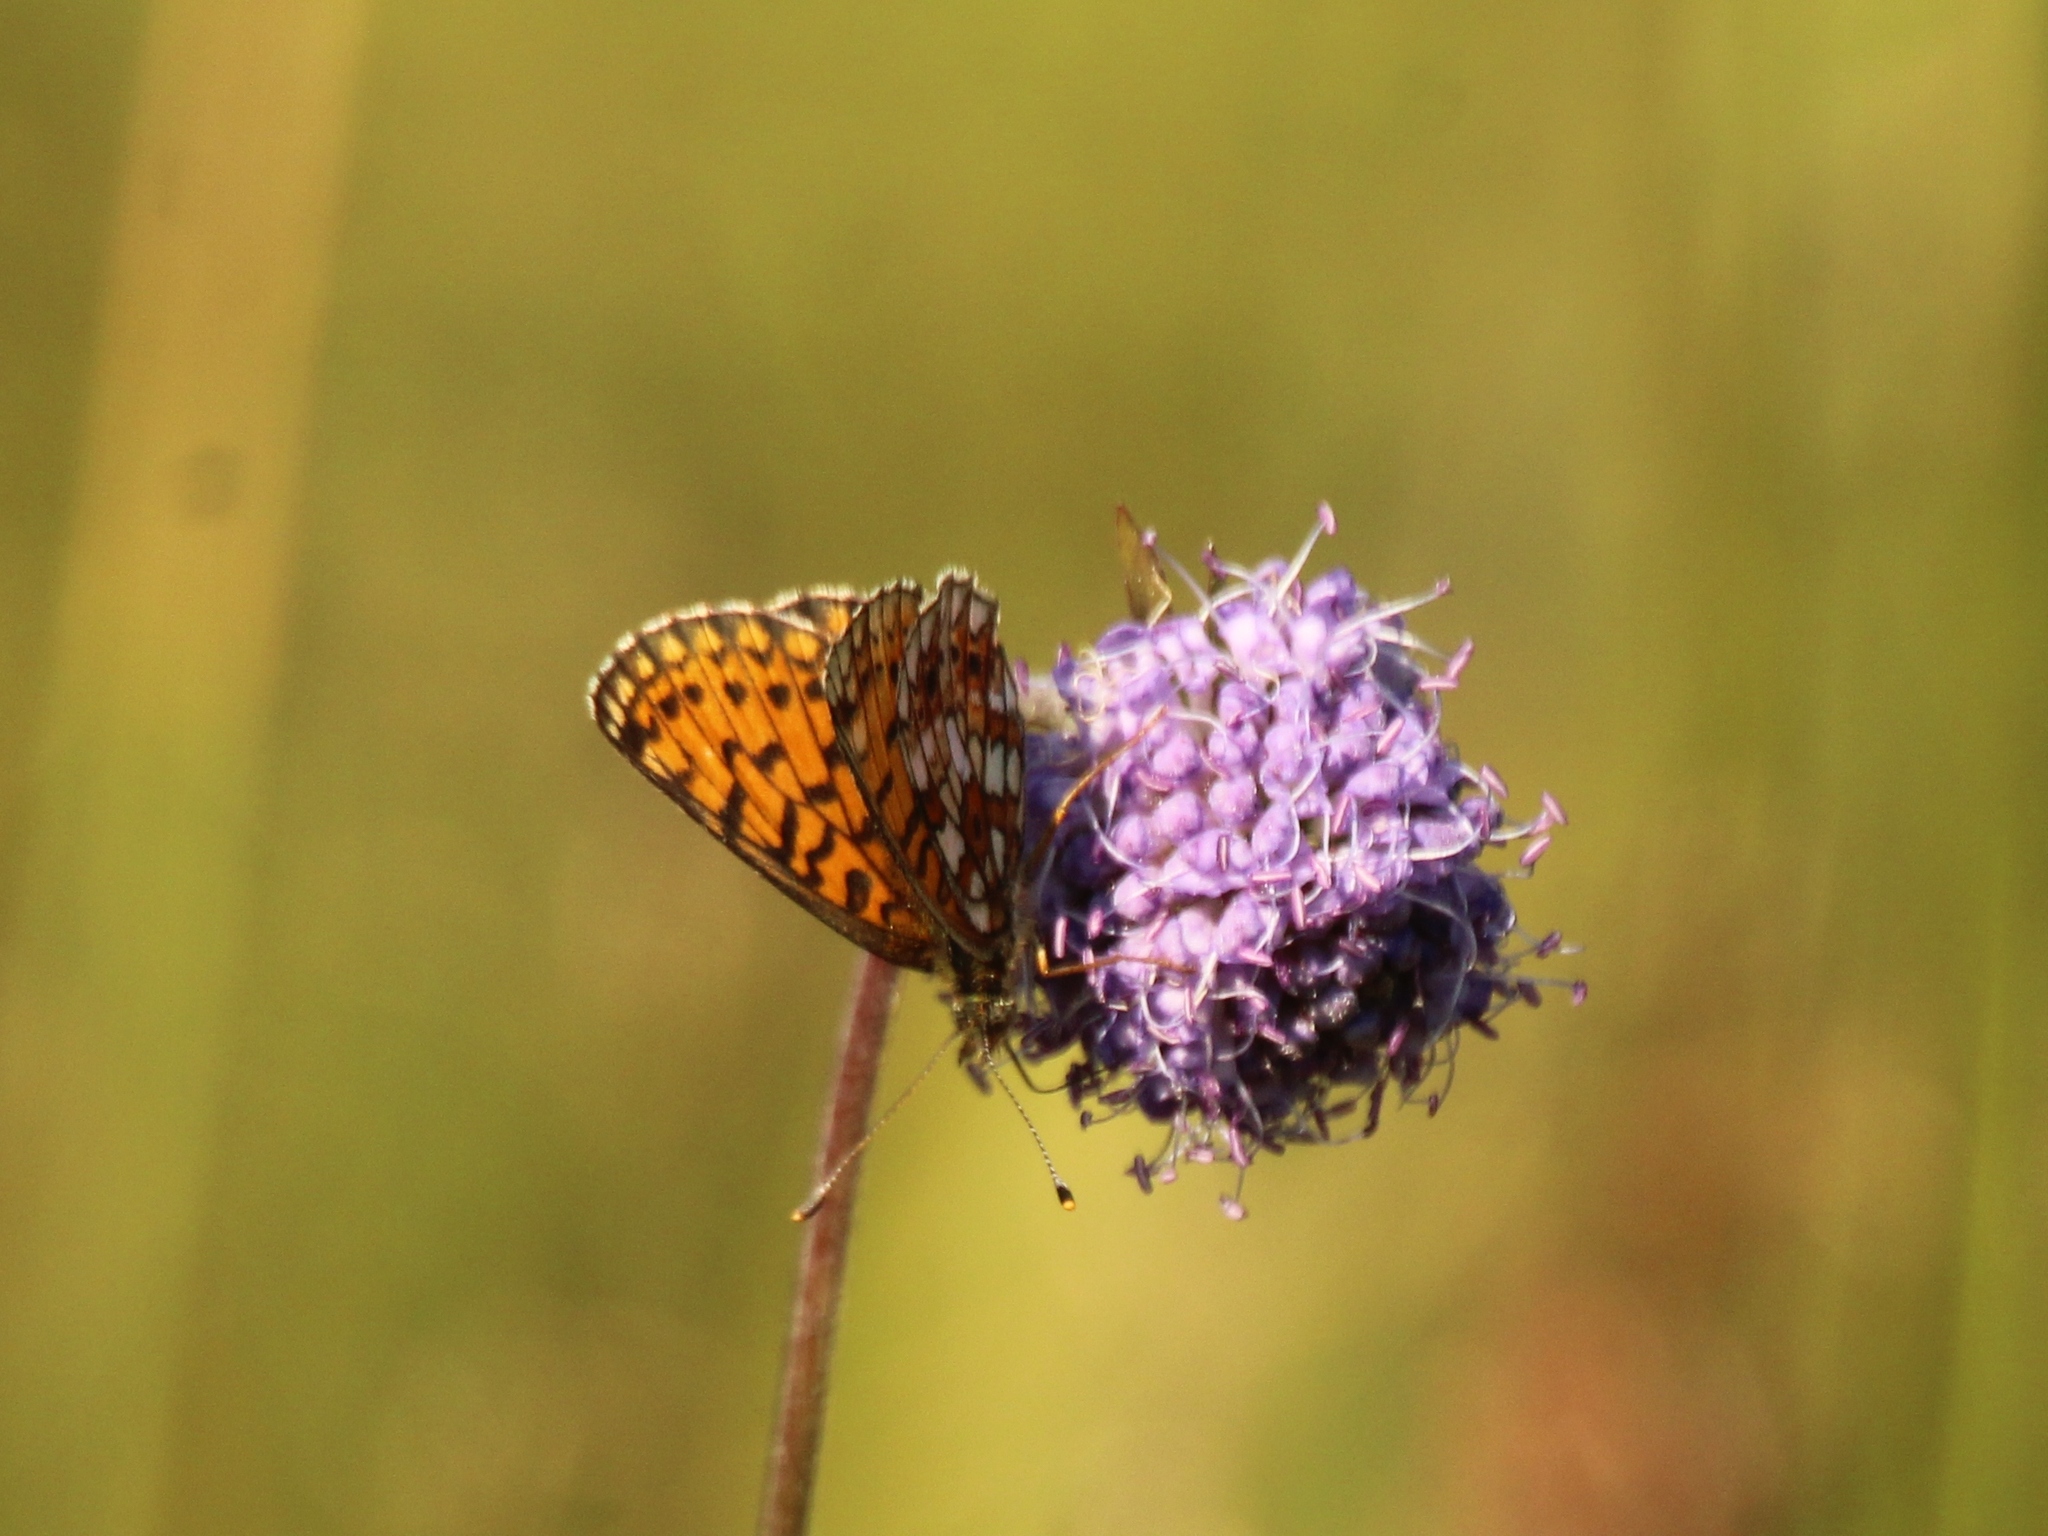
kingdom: Animalia
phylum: Arthropoda
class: Insecta
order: Lepidoptera
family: Nymphalidae
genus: Boloria
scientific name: Boloria selene
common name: Small pearl-bordered fritillary
